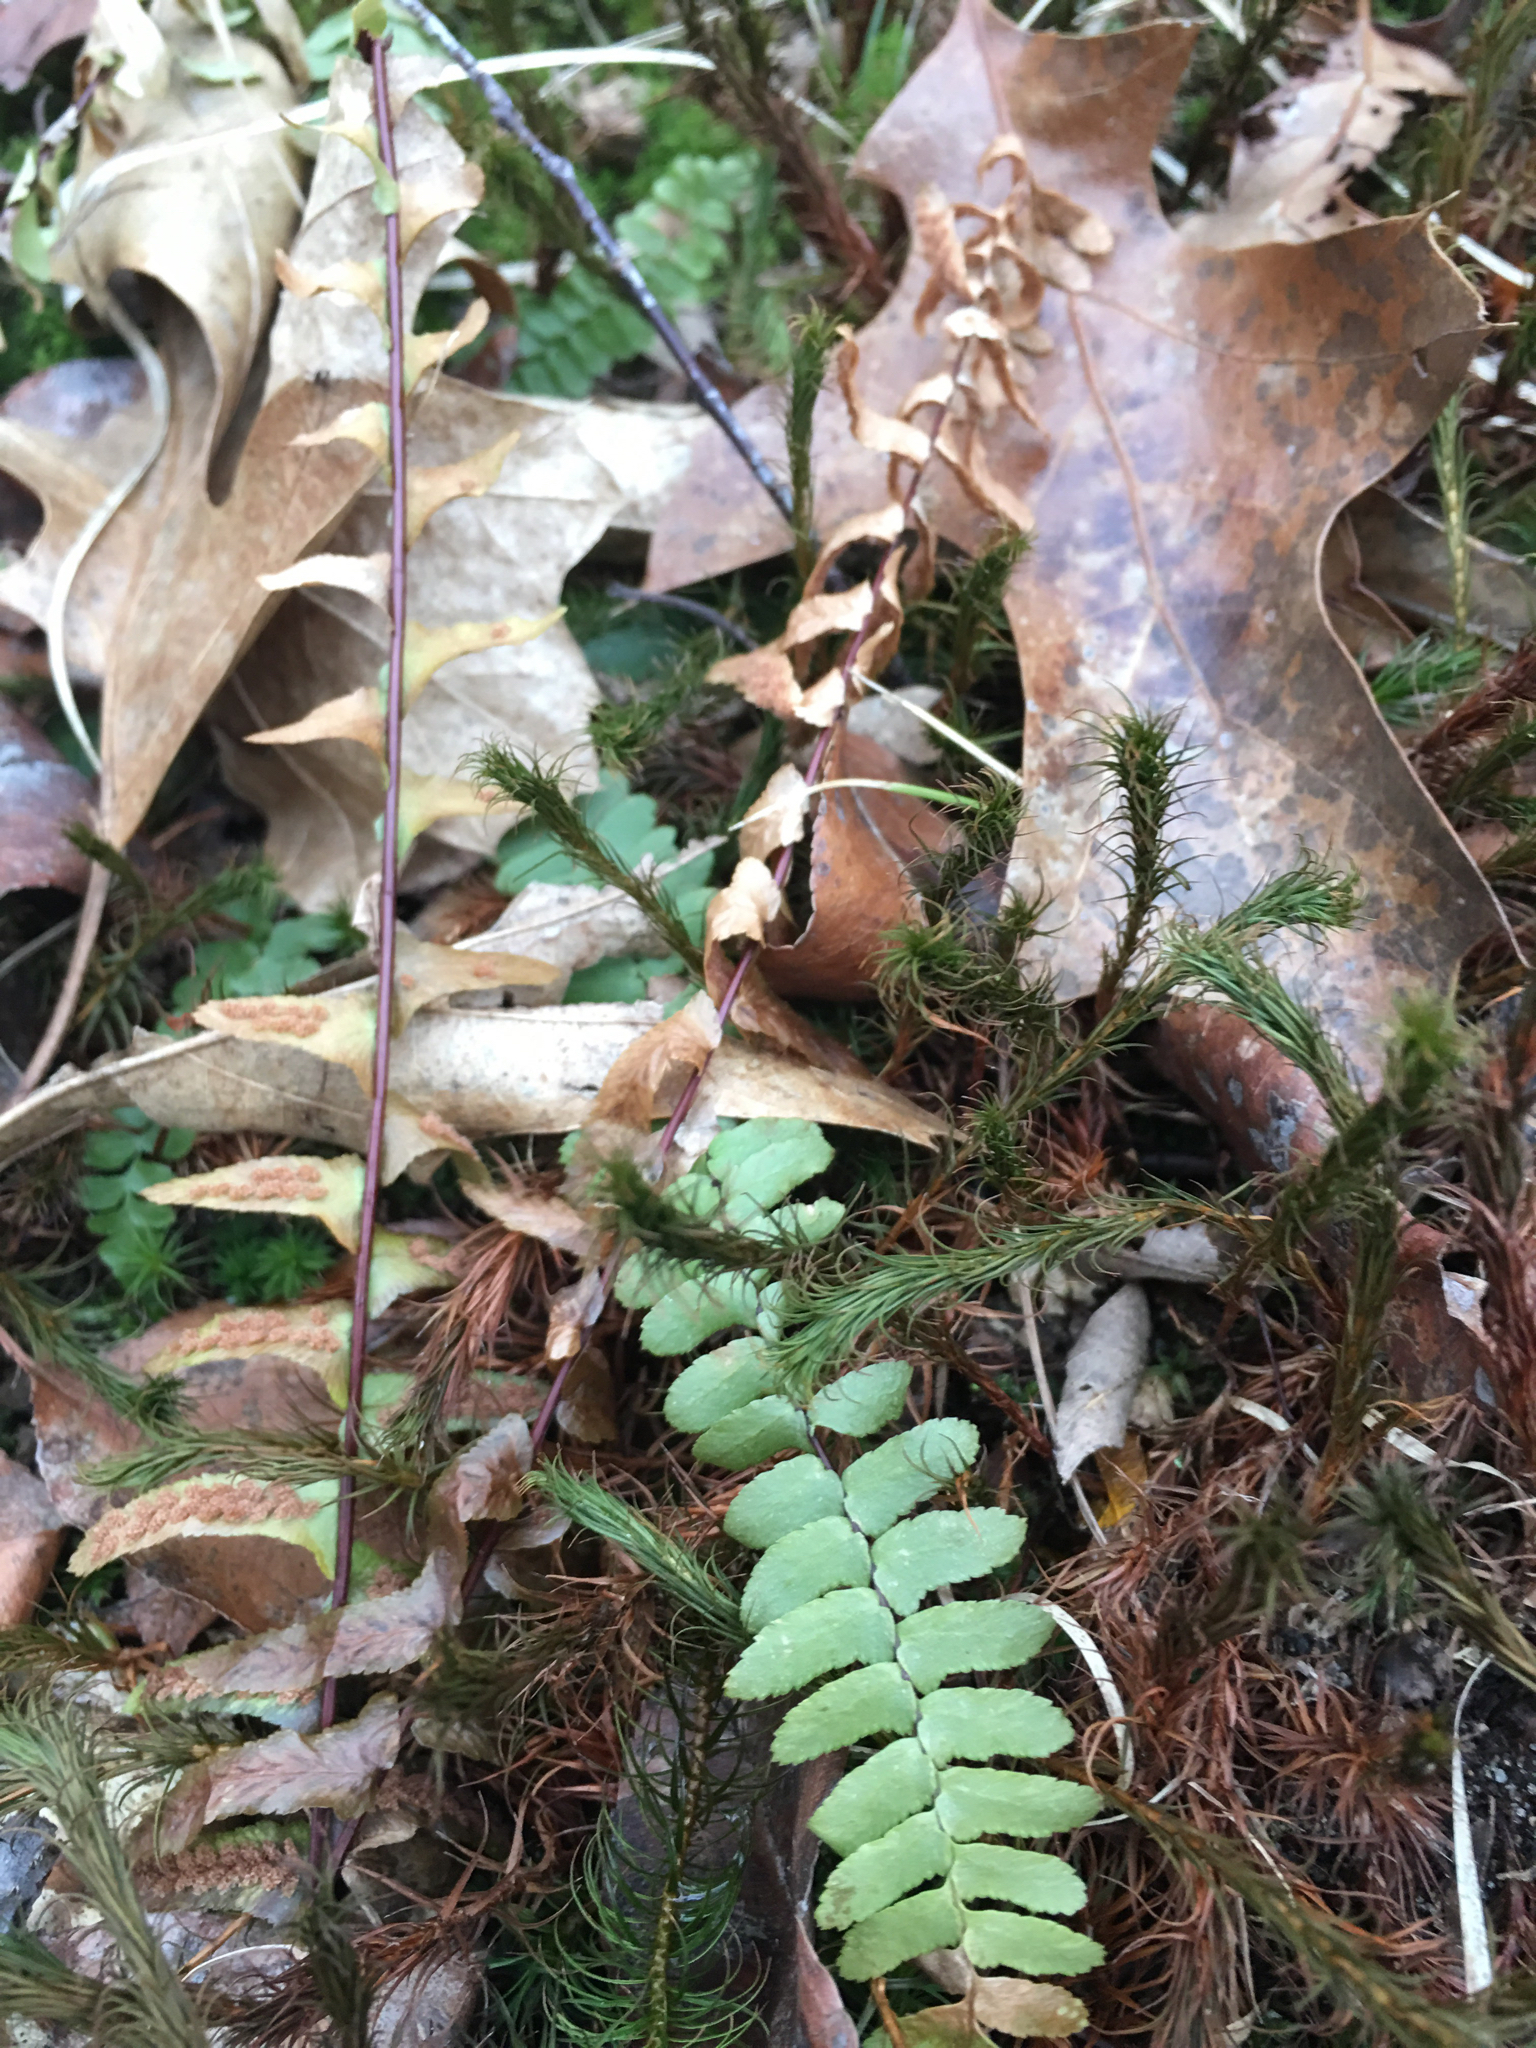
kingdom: Plantae
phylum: Tracheophyta
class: Polypodiopsida
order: Polypodiales
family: Aspleniaceae
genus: Asplenium
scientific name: Asplenium platyneuron
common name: Ebony spleenwort
